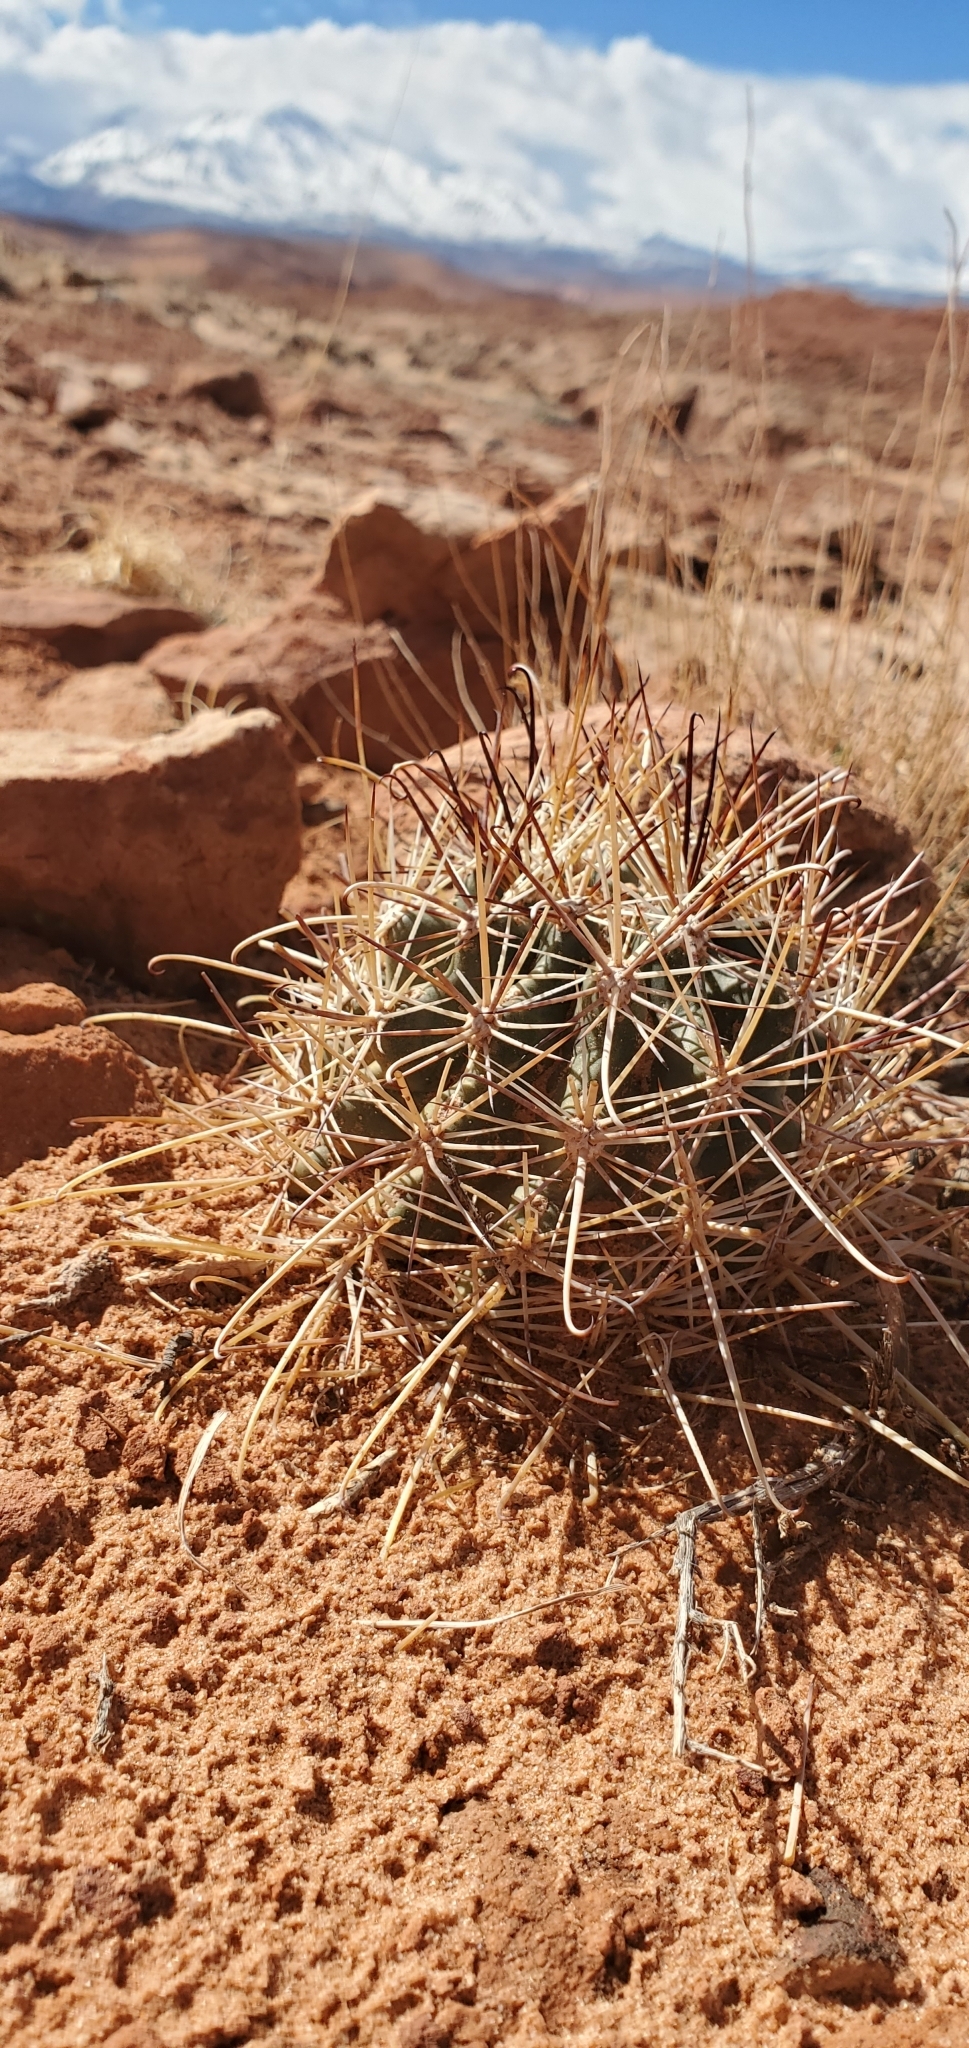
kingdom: Plantae
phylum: Tracheophyta
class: Magnoliopsida
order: Caryophyllales
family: Cactaceae
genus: Sclerocactus
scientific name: Sclerocactus parviflorus
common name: Small-flower fishhook cactus
